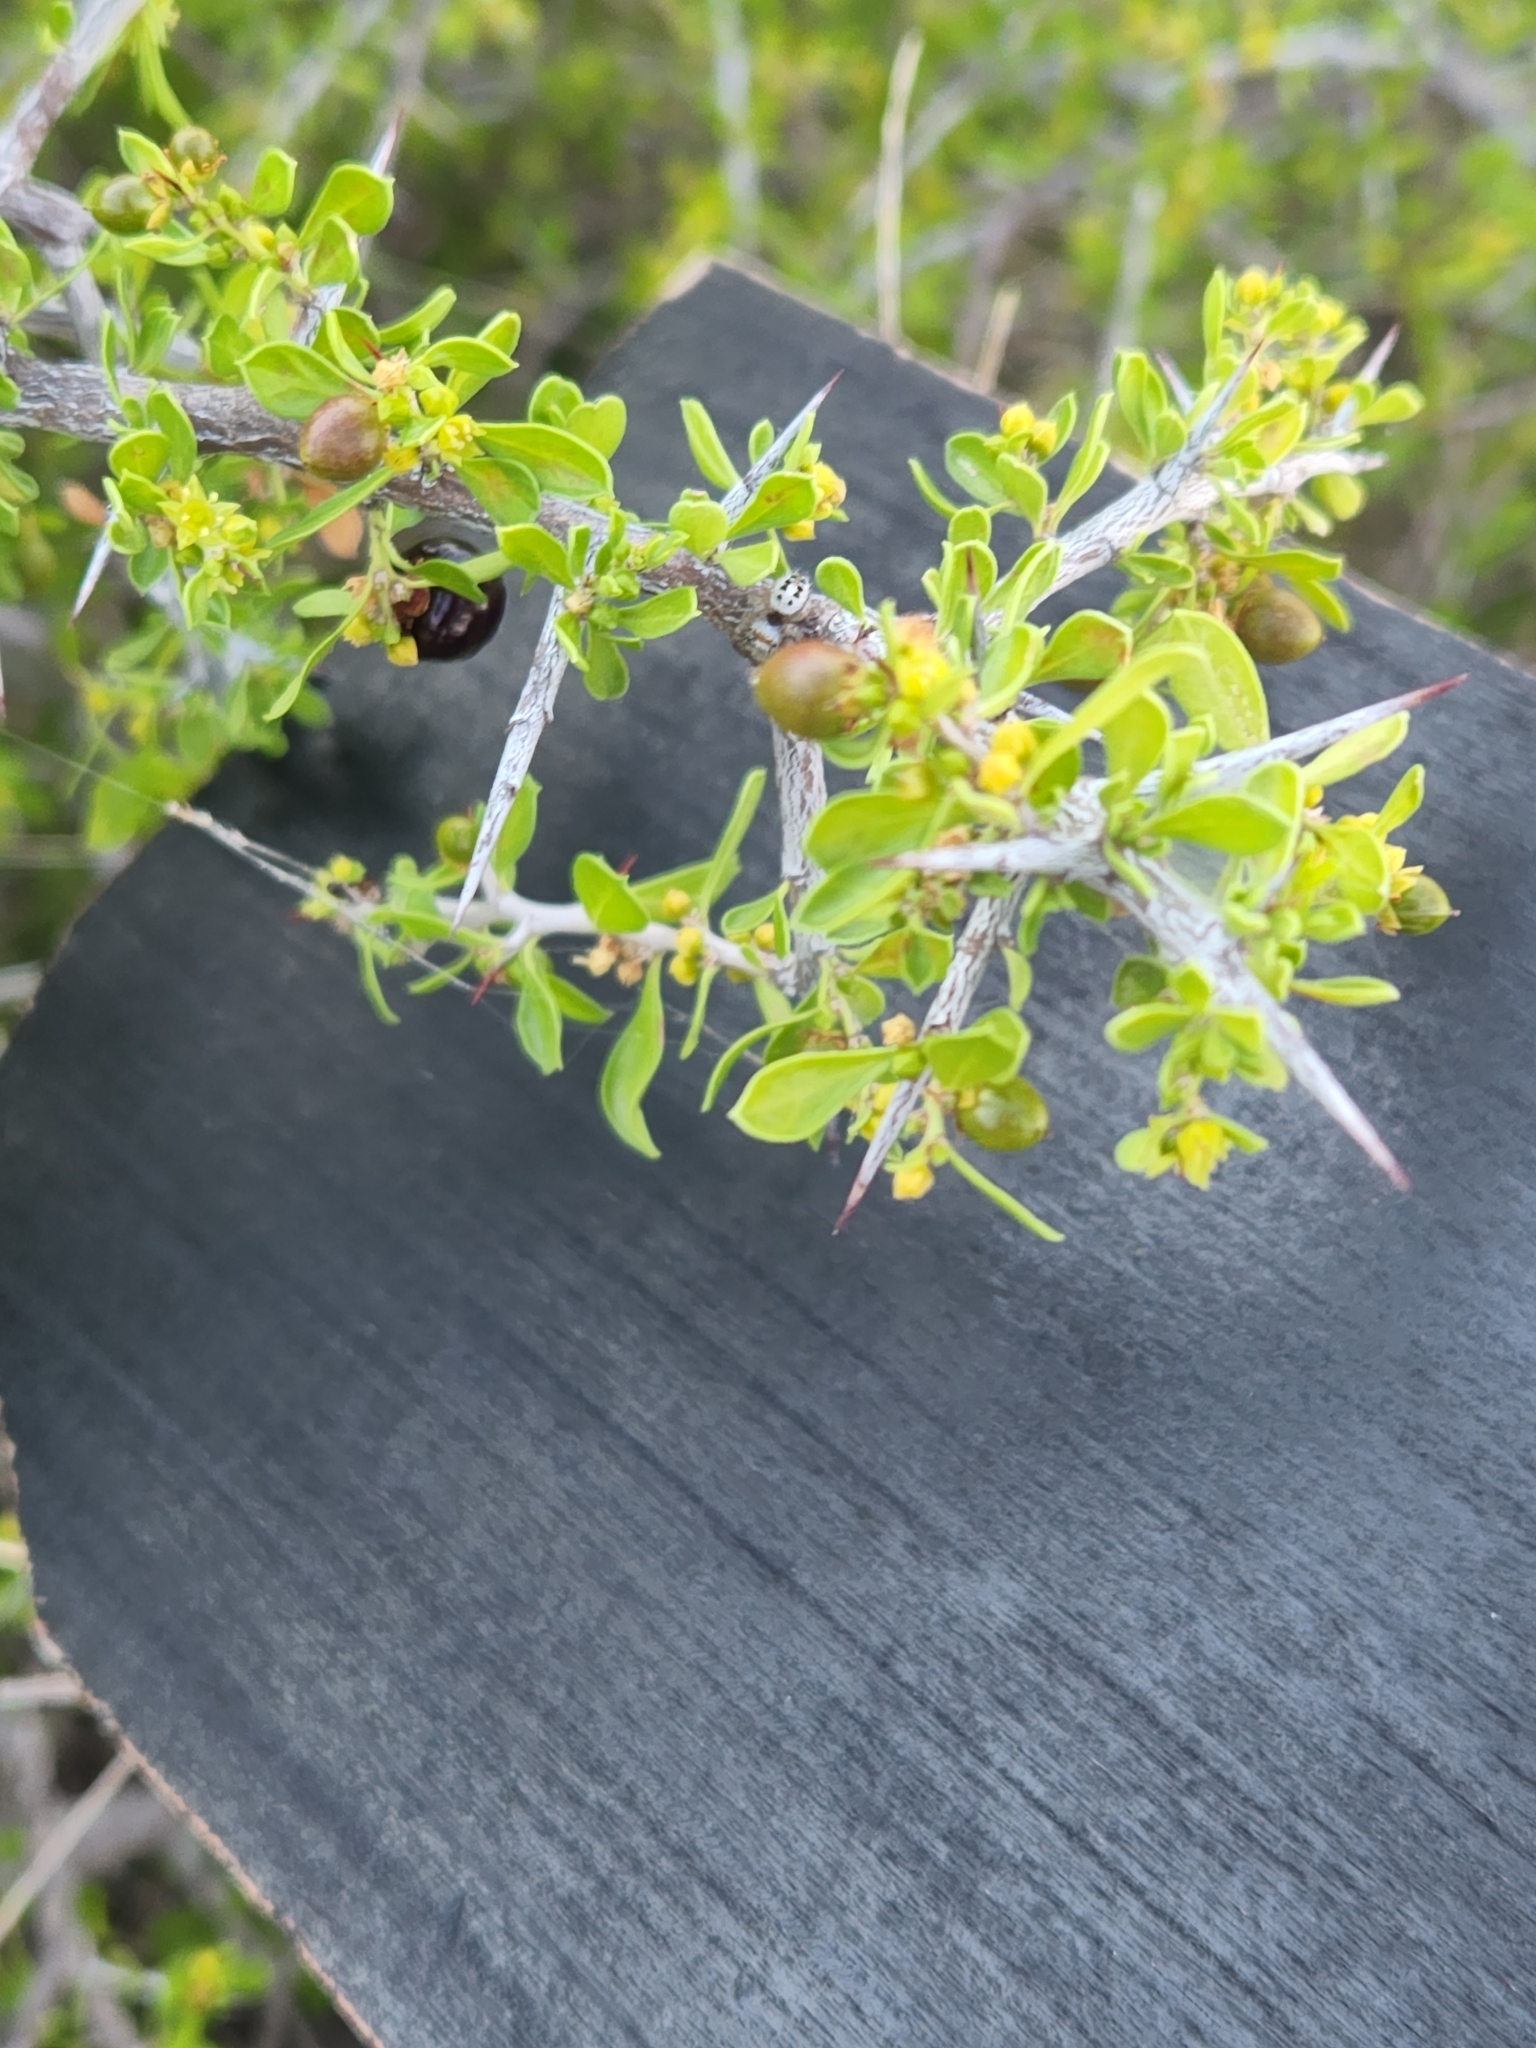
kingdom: Plantae
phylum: Tracheophyta
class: Magnoliopsida
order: Rosales
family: Rhamnaceae
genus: Condalia
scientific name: Condalia viridis
